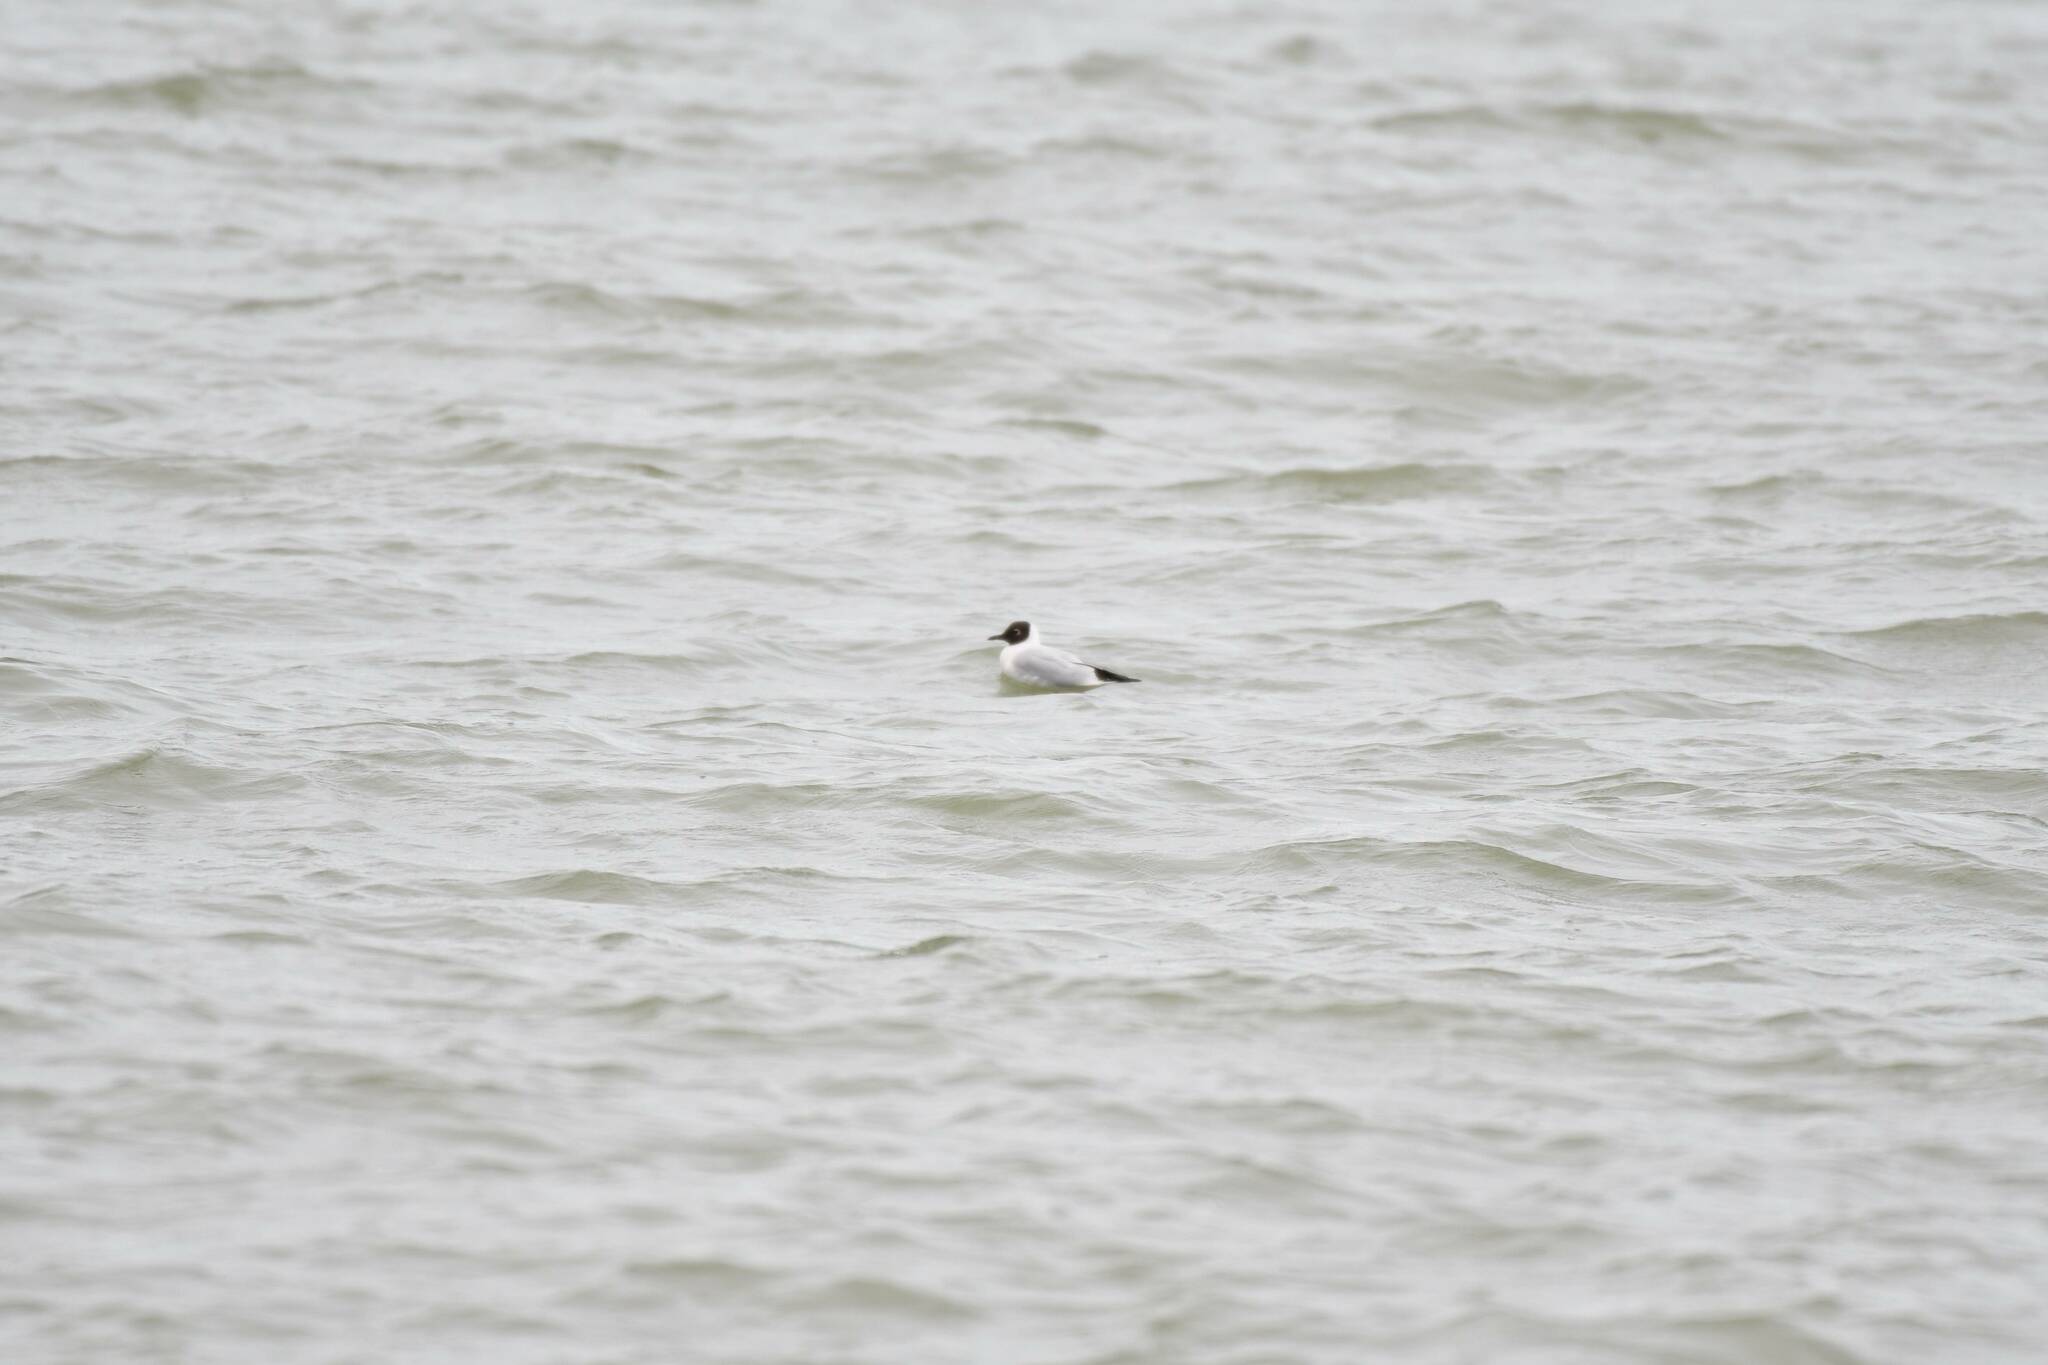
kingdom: Animalia
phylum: Chordata
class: Aves
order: Charadriiformes
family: Laridae
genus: Chroicocephalus
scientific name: Chroicocephalus ridibundus
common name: Black-headed gull
